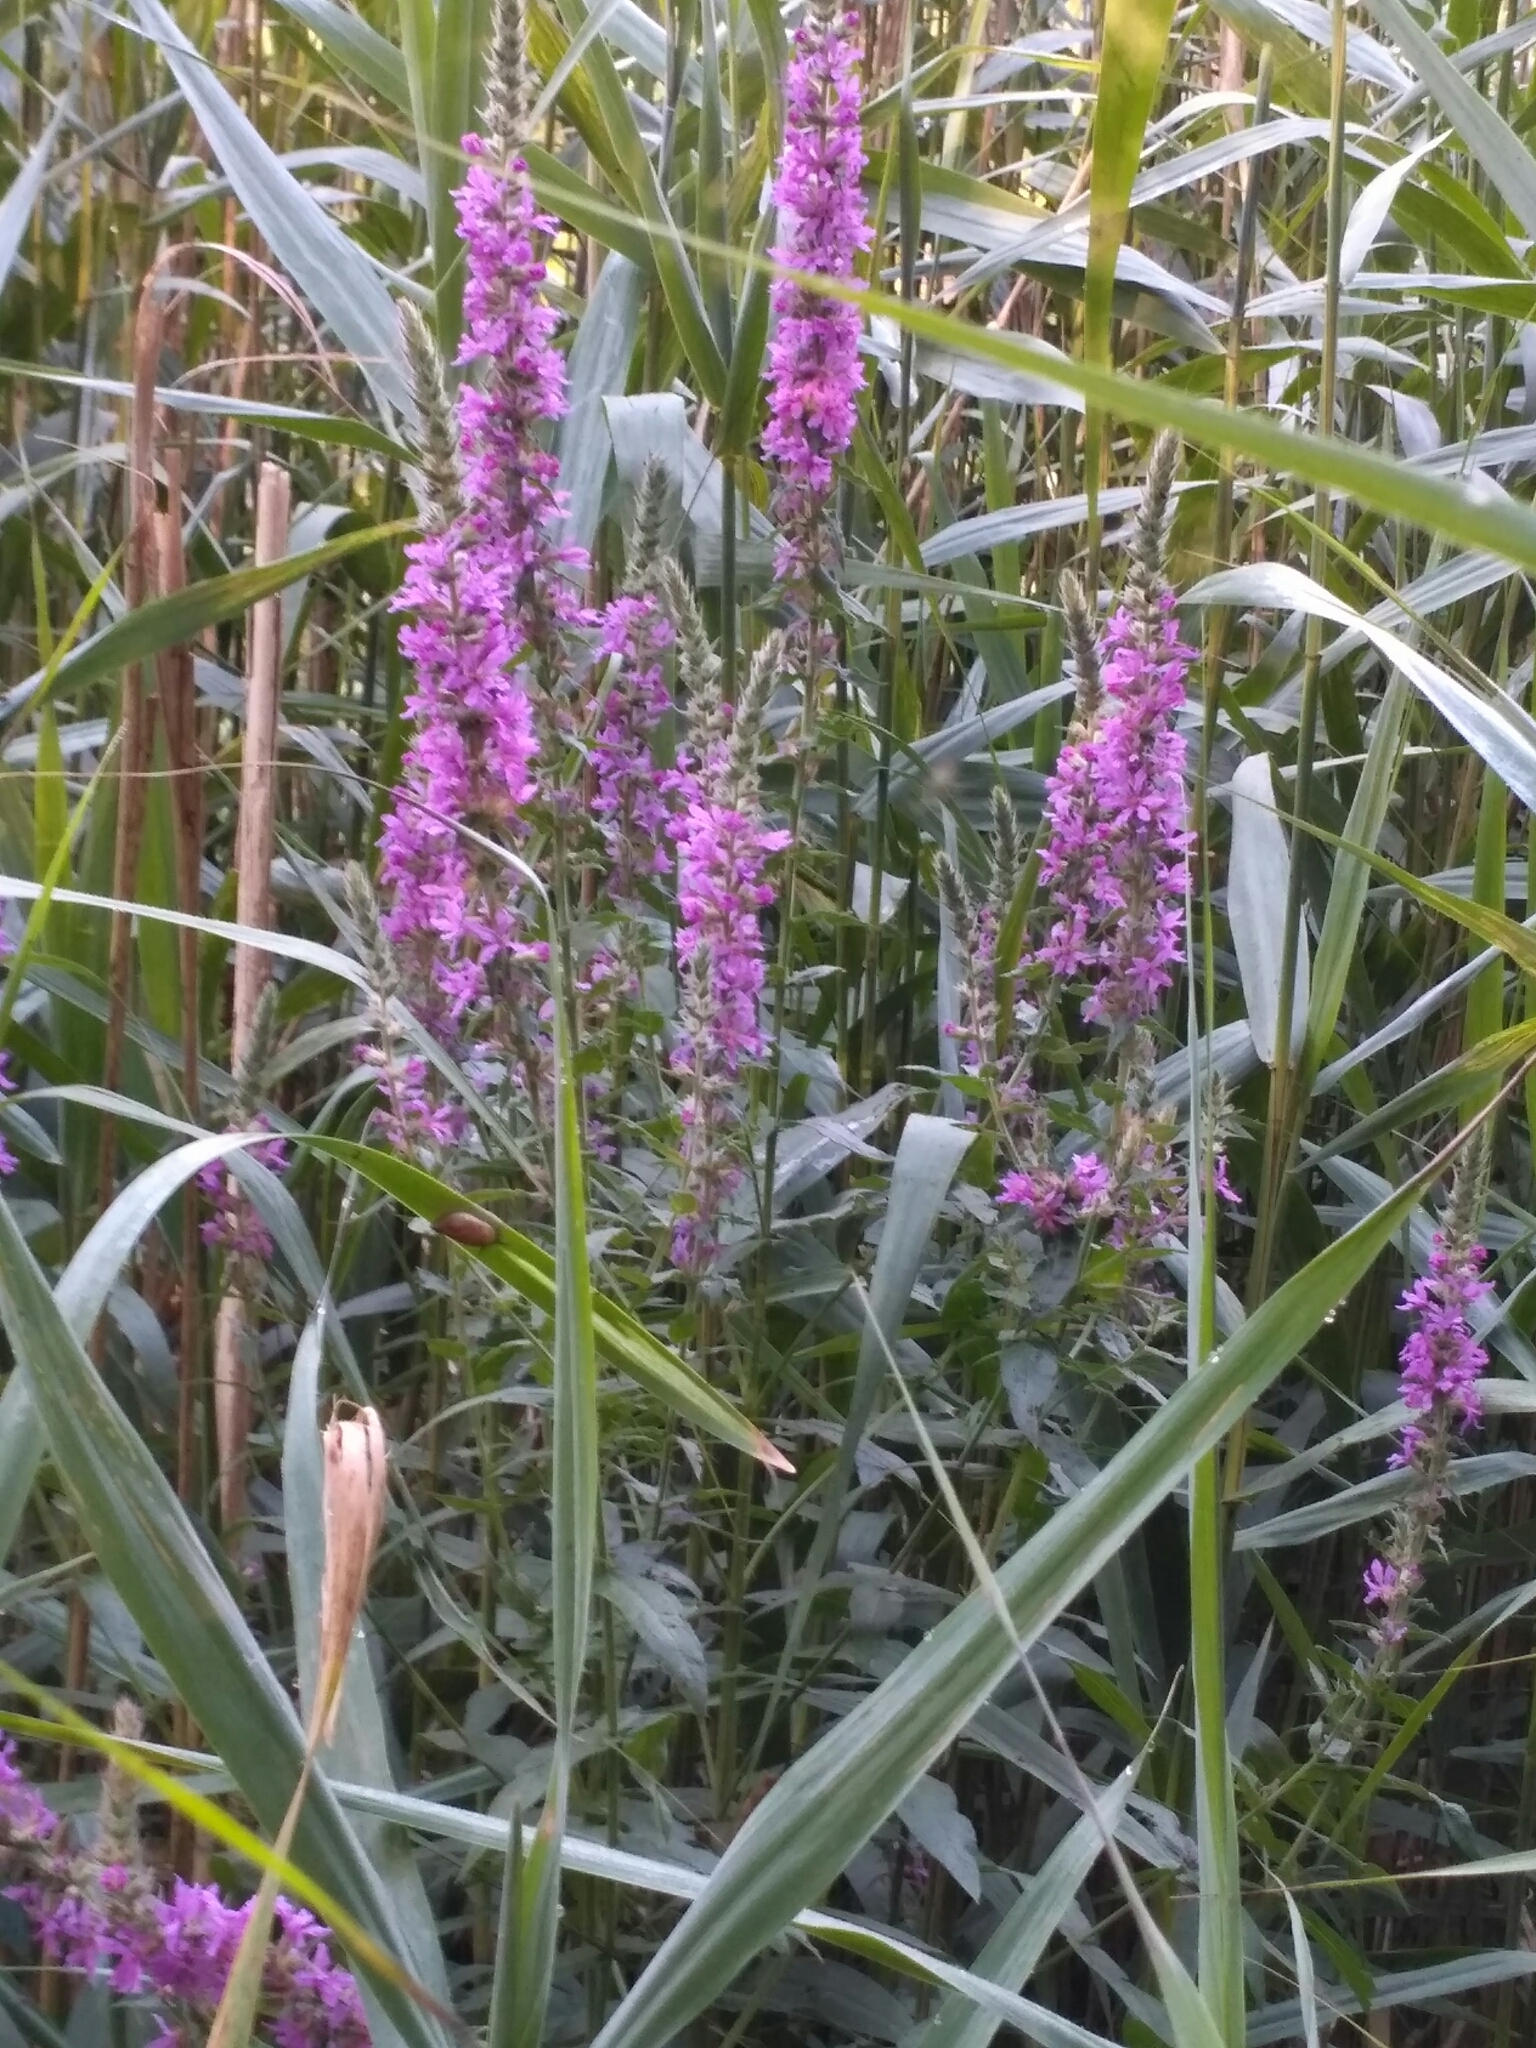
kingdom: Plantae
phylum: Tracheophyta
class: Magnoliopsida
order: Myrtales
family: Lythraceae
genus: Lythrum
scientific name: Lythrum salicaria
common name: Purple loosestrife
